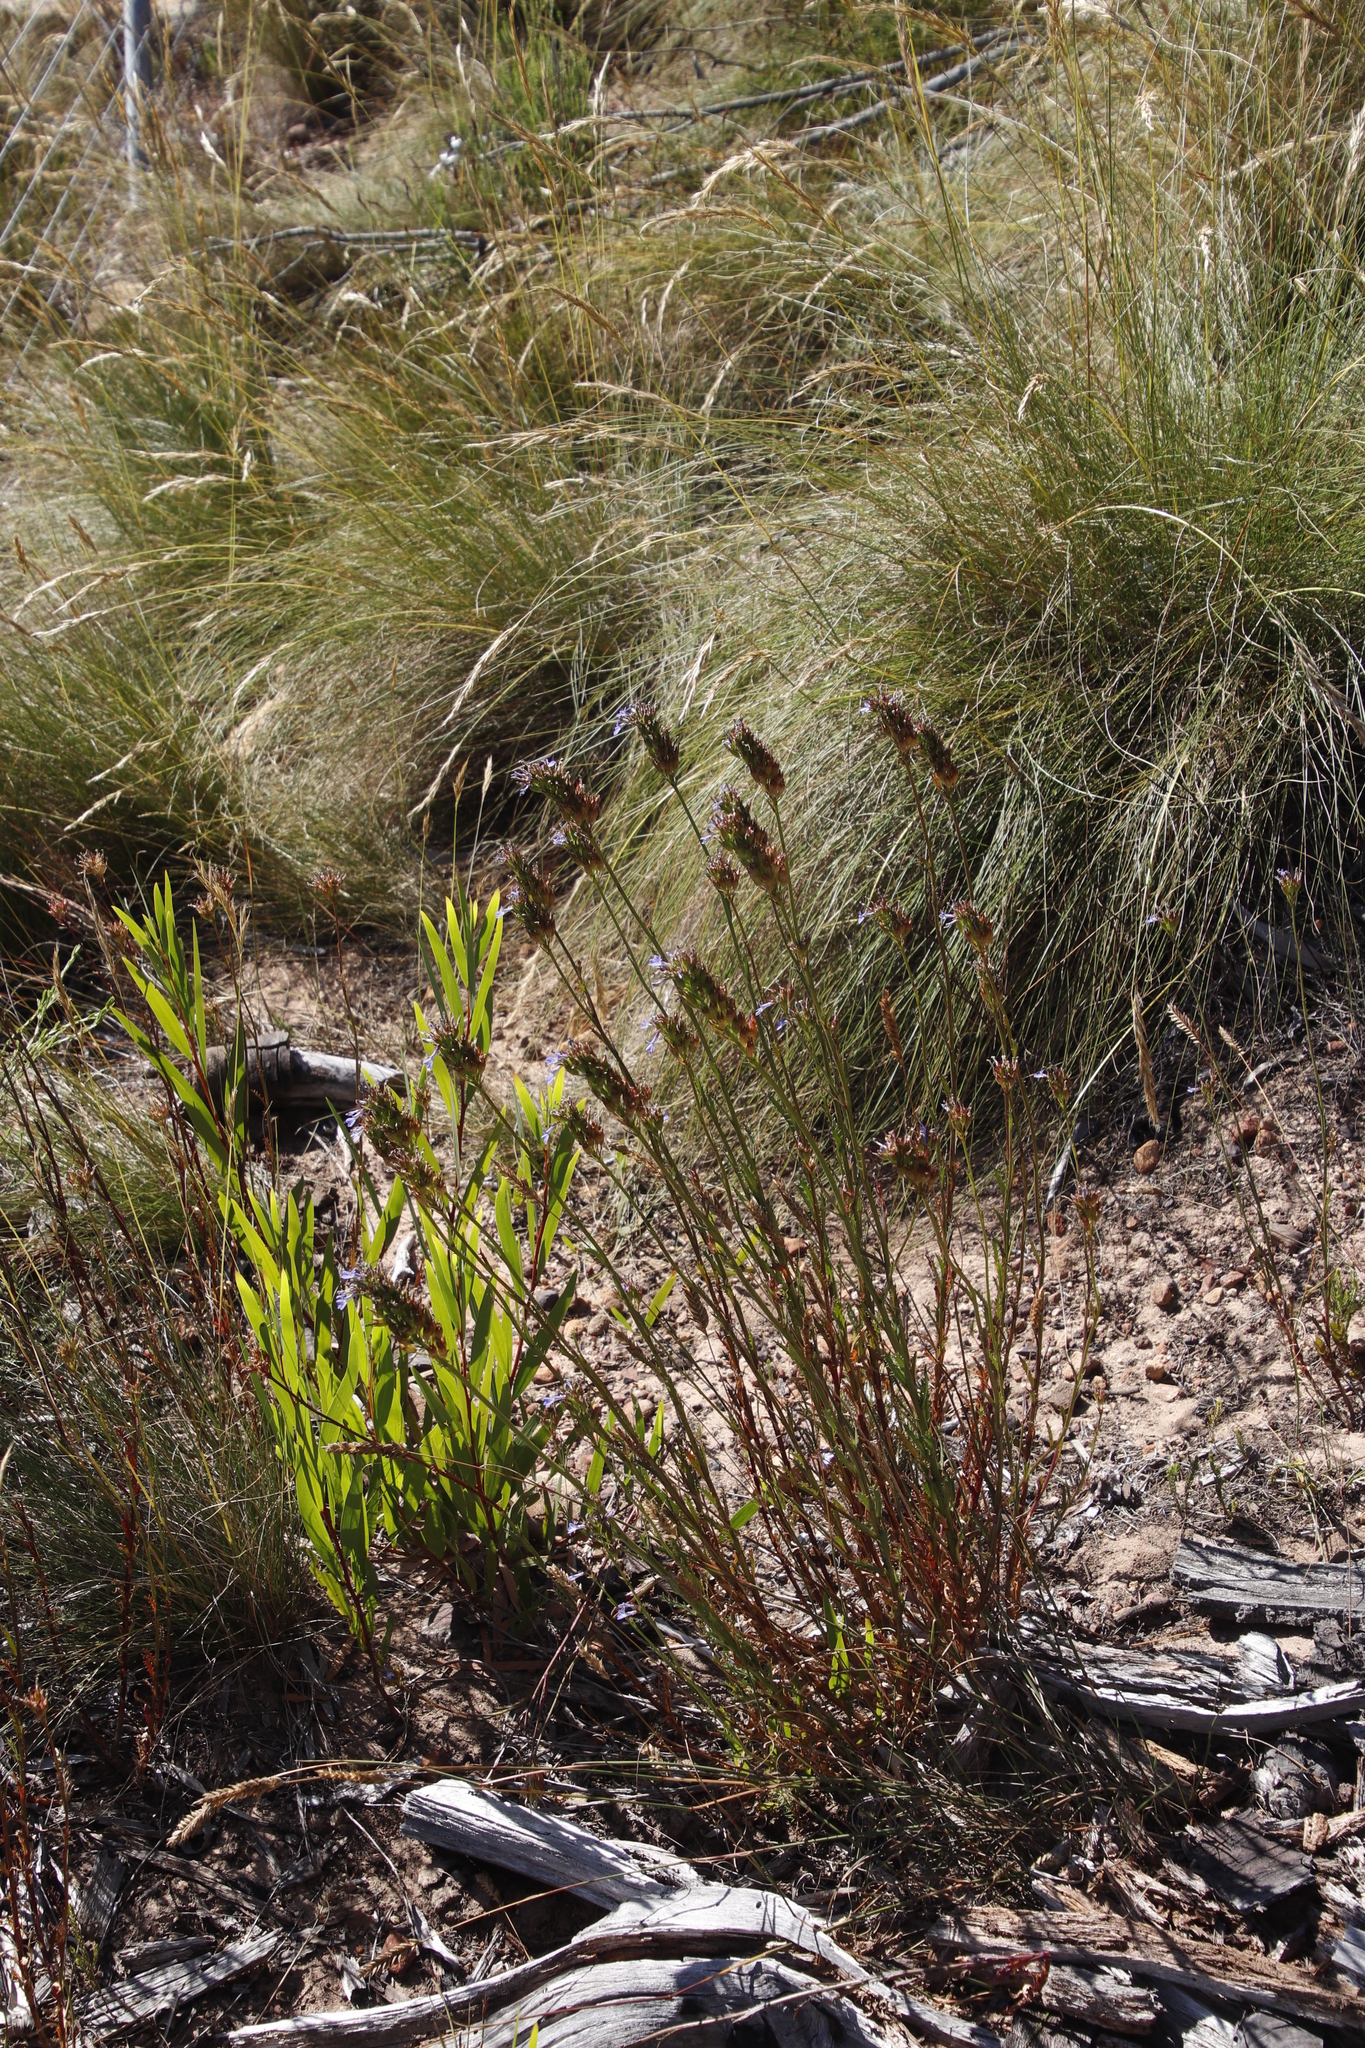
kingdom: Plantae
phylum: Tracheophyta
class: Magnoliopsida
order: Asterales
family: Campanulaceae
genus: Lobelia
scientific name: Lobelia comosa
